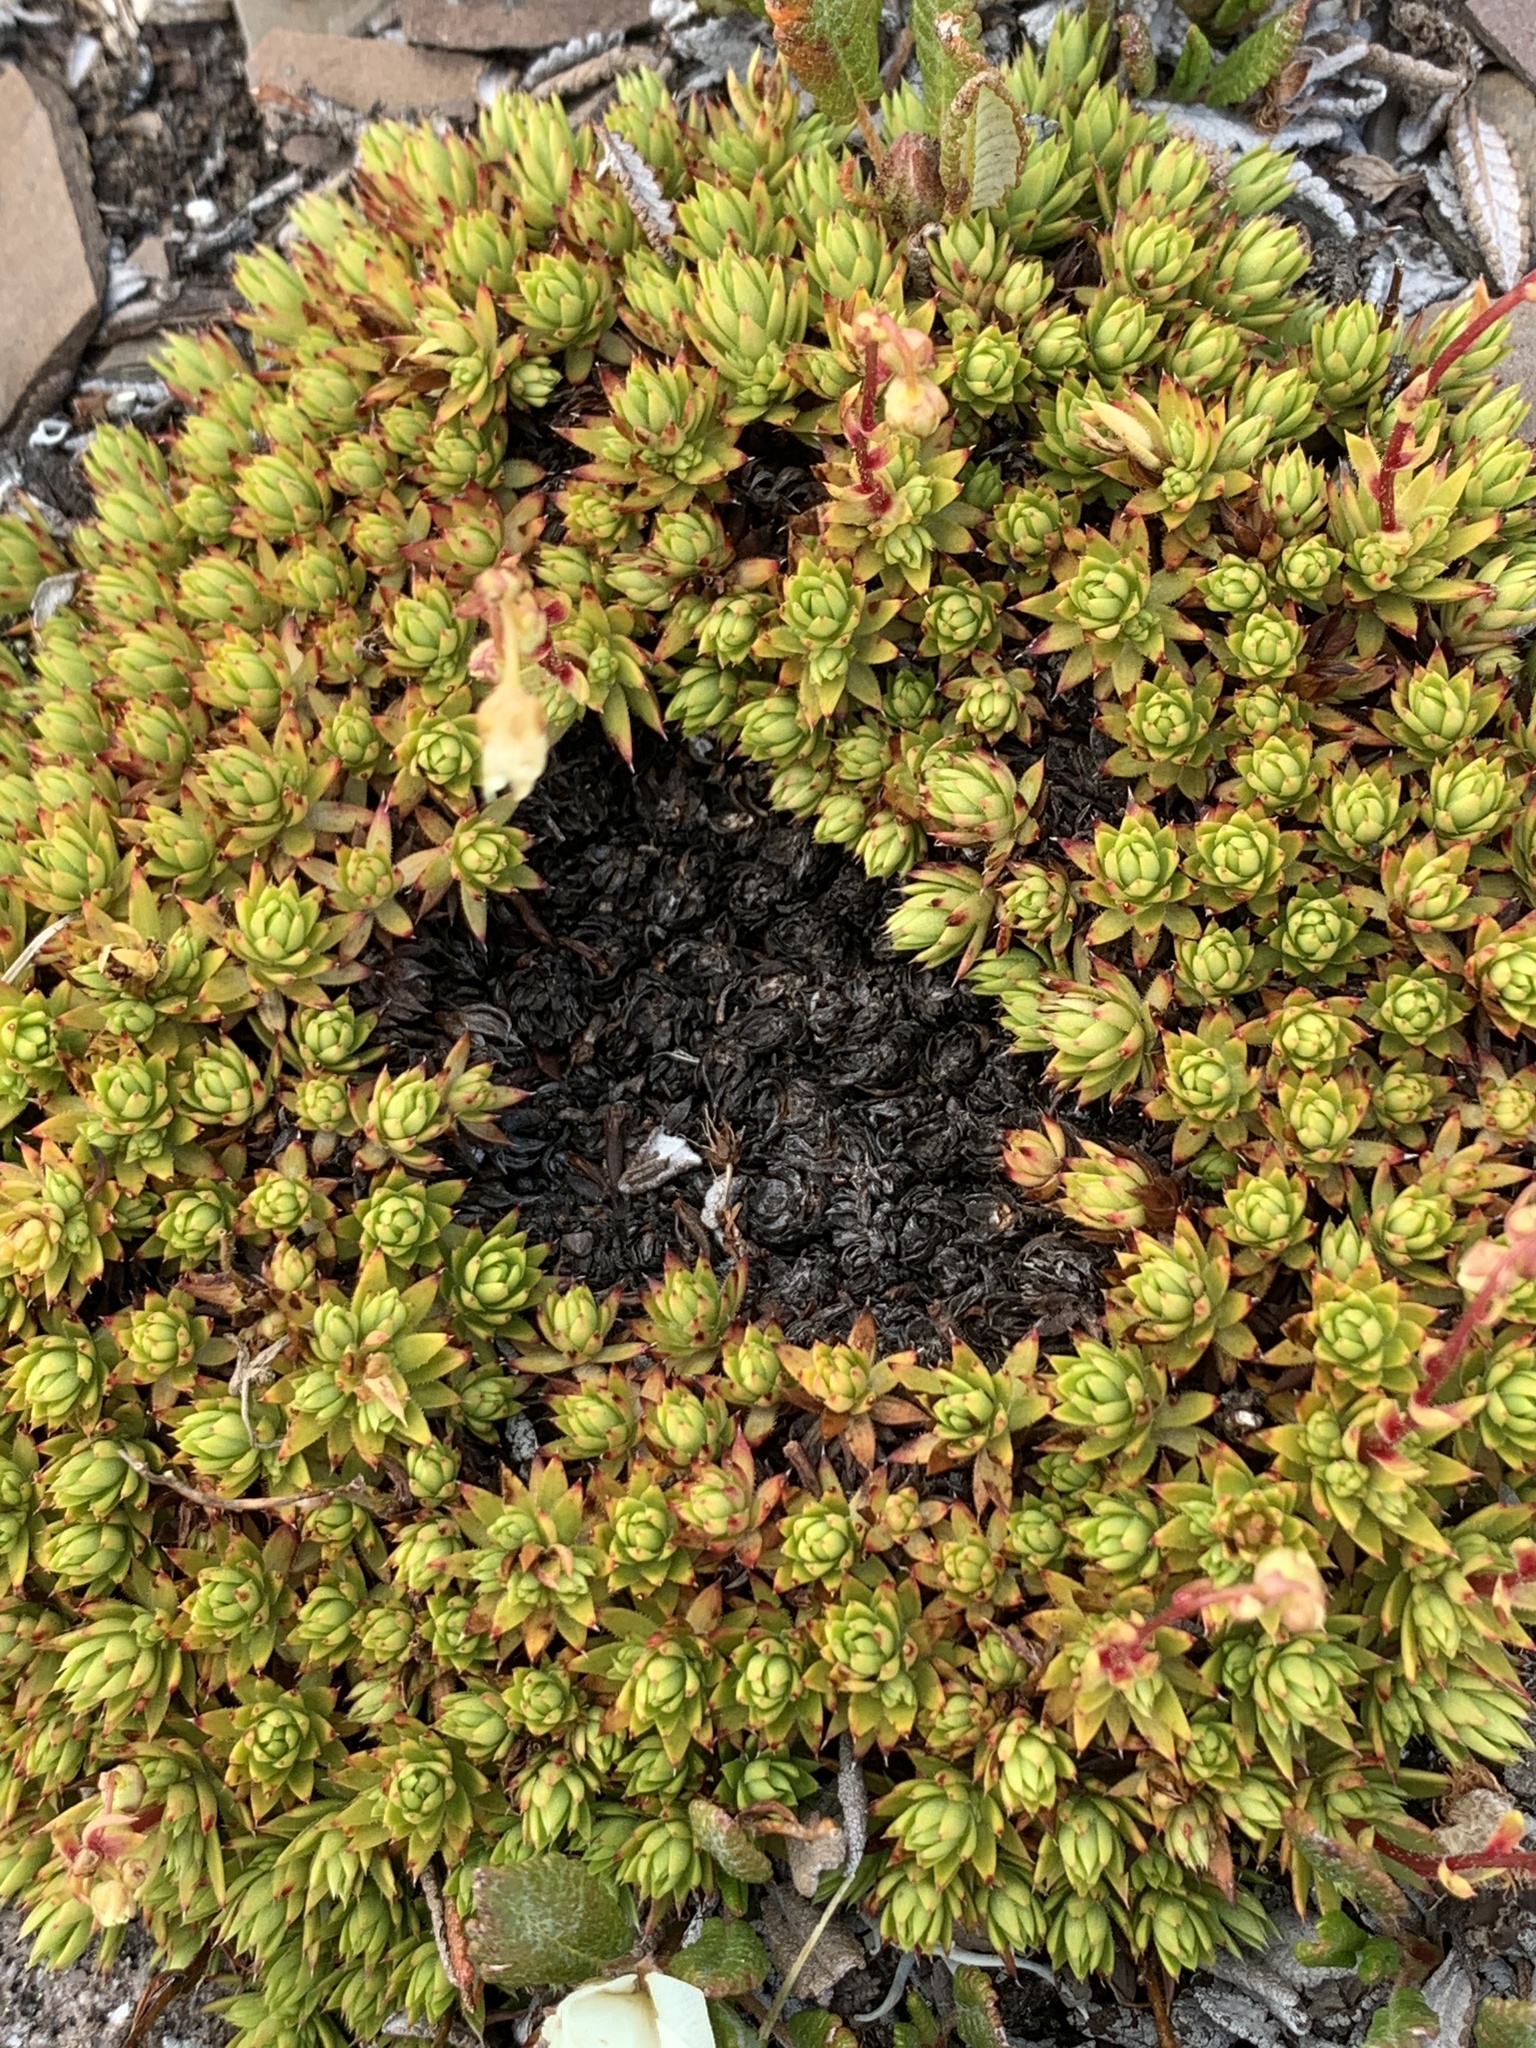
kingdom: Plantae
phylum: Tracheophyta
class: Magnoliopsida
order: Saxifragales
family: Saxifragaceae
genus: Saxifraga
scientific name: Saxifraga bronchialis
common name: Matted saxifrage
